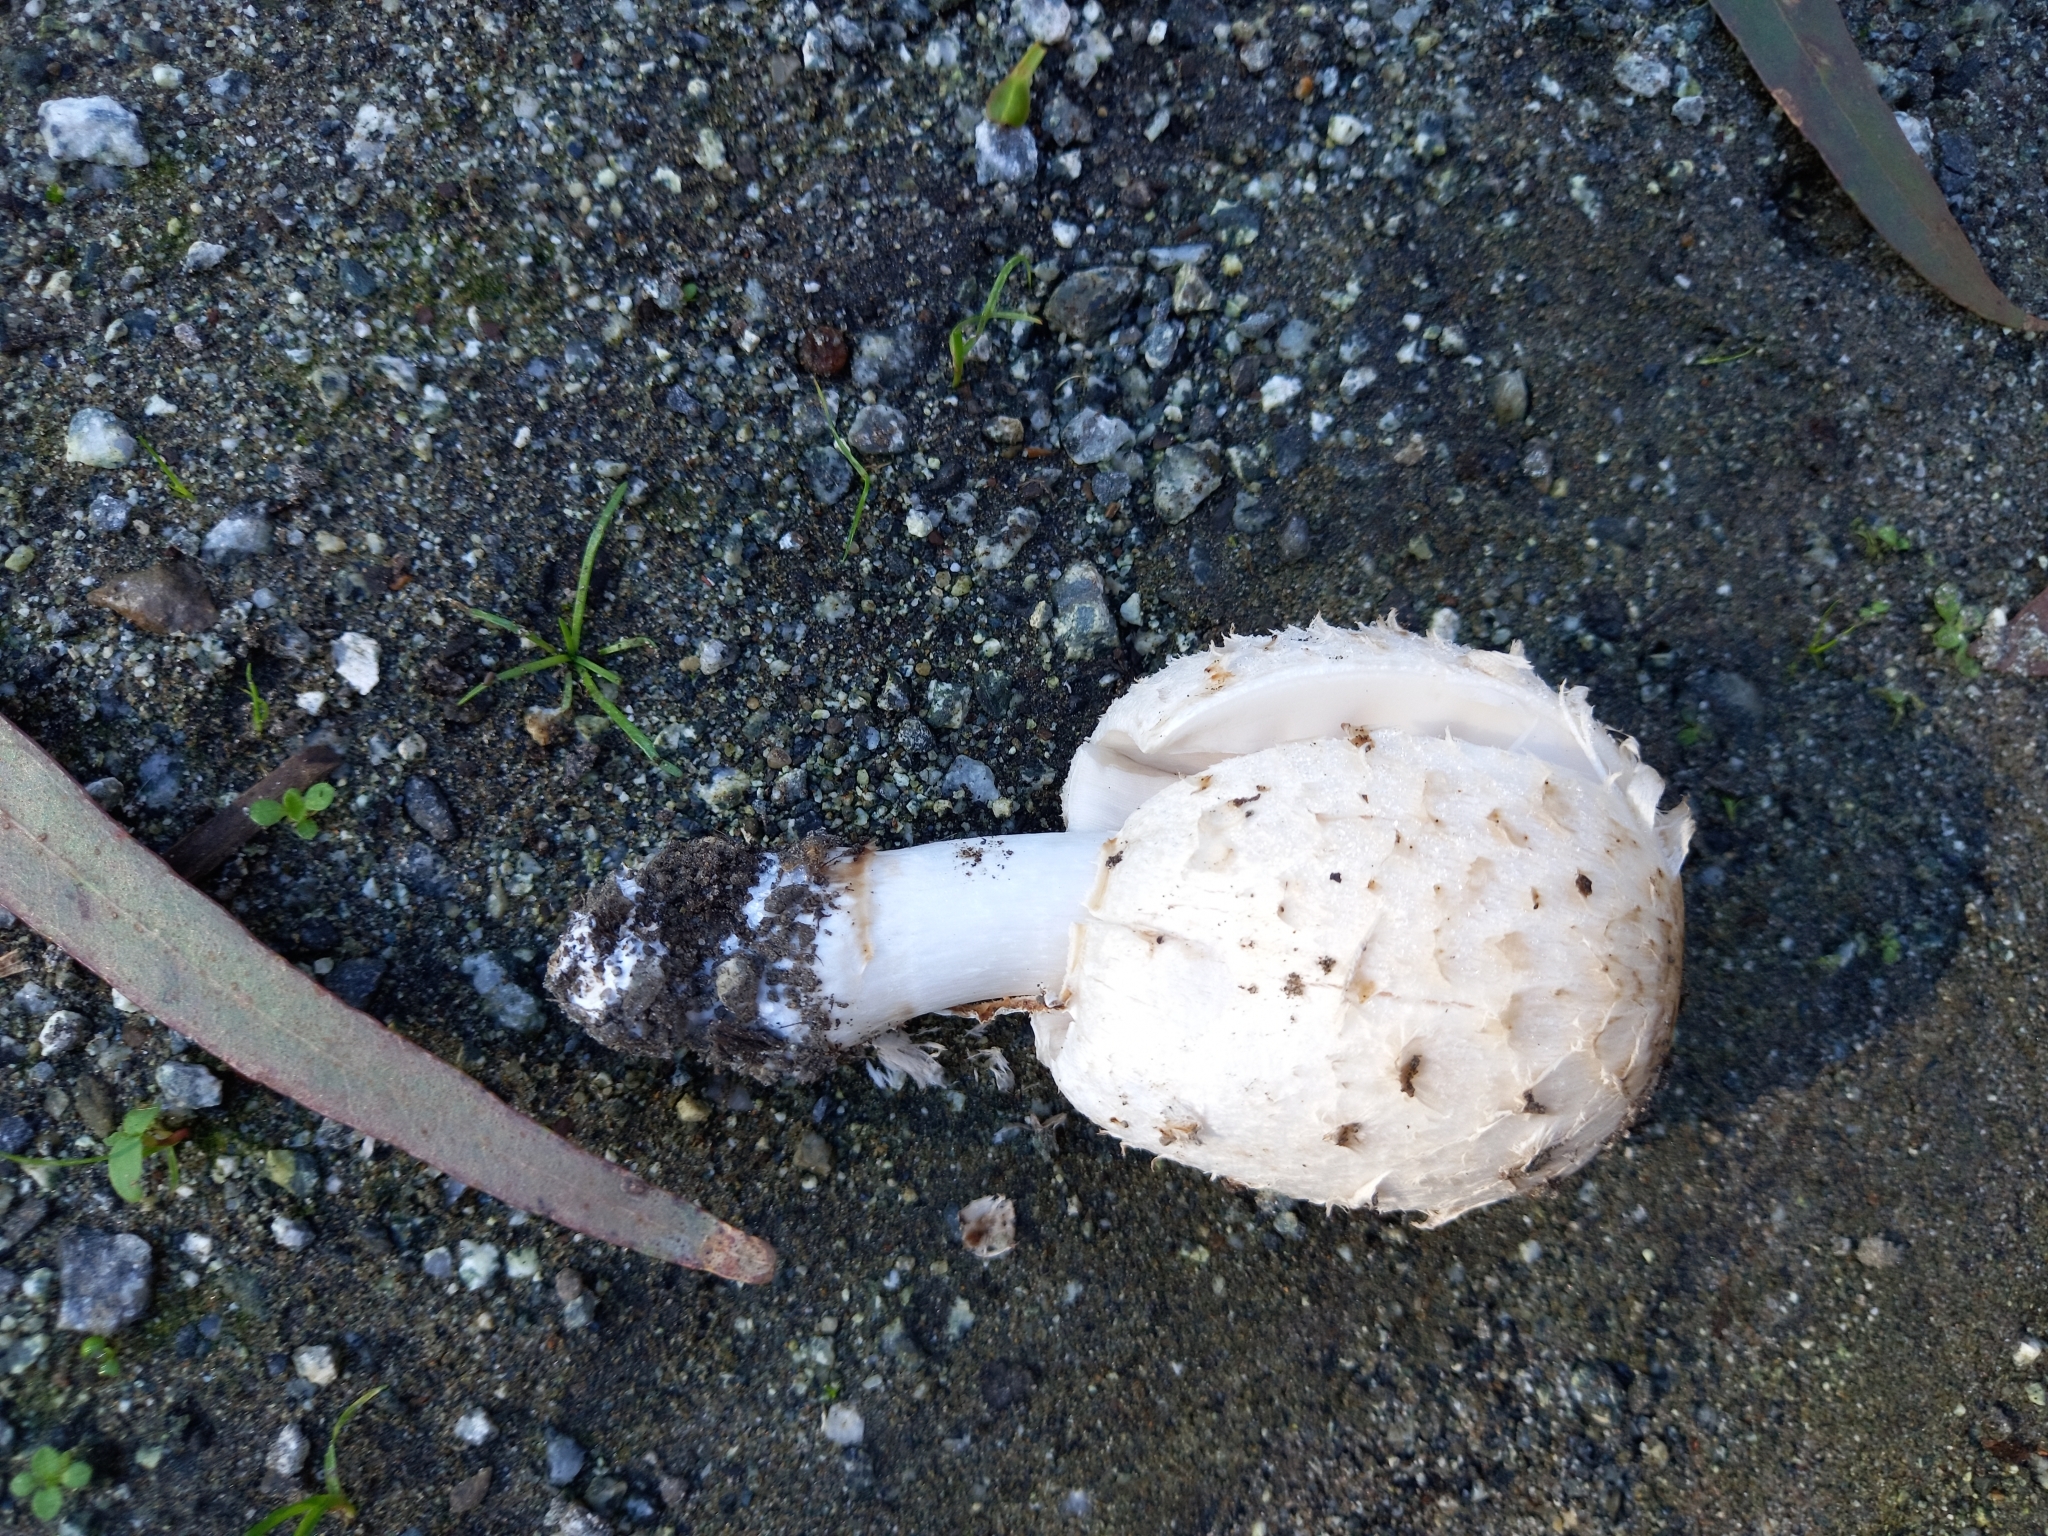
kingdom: Fungi
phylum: Basidiomycota
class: Agaricomycetes
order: Agaricales
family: Agaricaceae
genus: Coprinus
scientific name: Coprinus comatus
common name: Lawyer's wig
